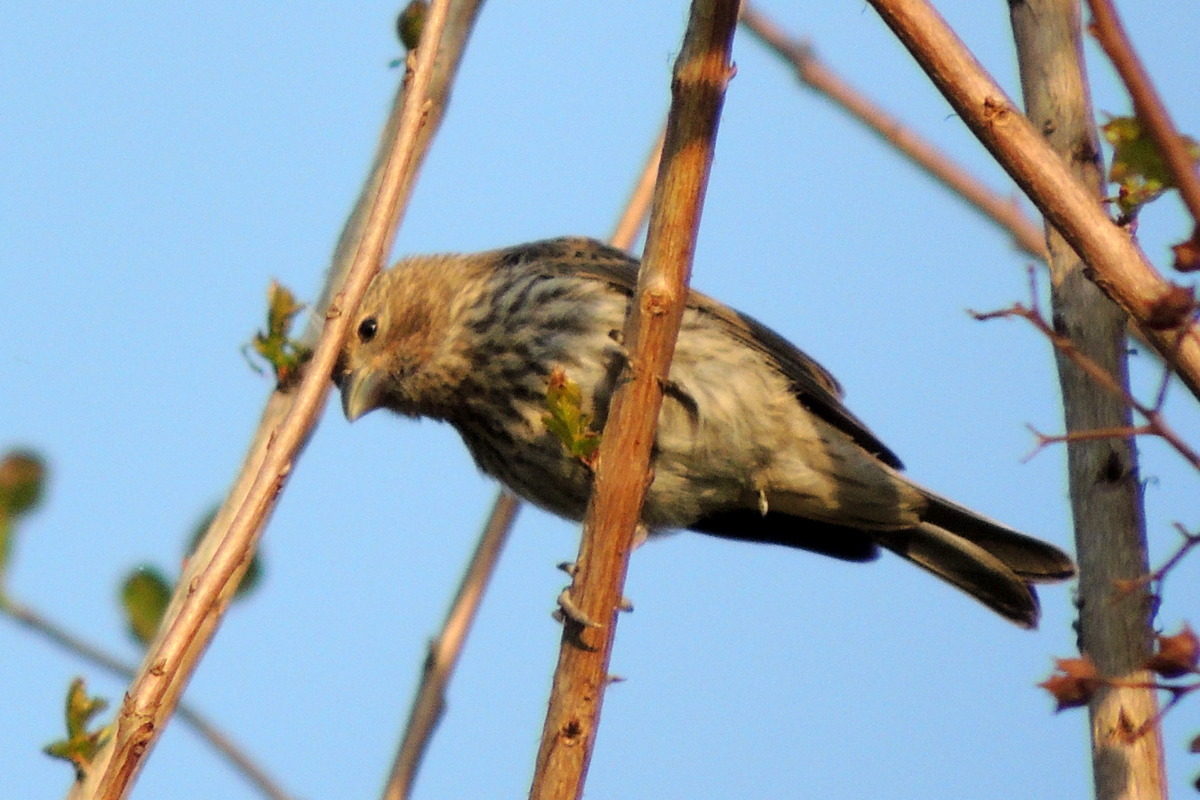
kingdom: Animalia
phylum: Chordata
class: Aves
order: Passeriformes
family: Fringillidae
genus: Haemorhous
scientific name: Haemorhous mexicanus
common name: House finch
